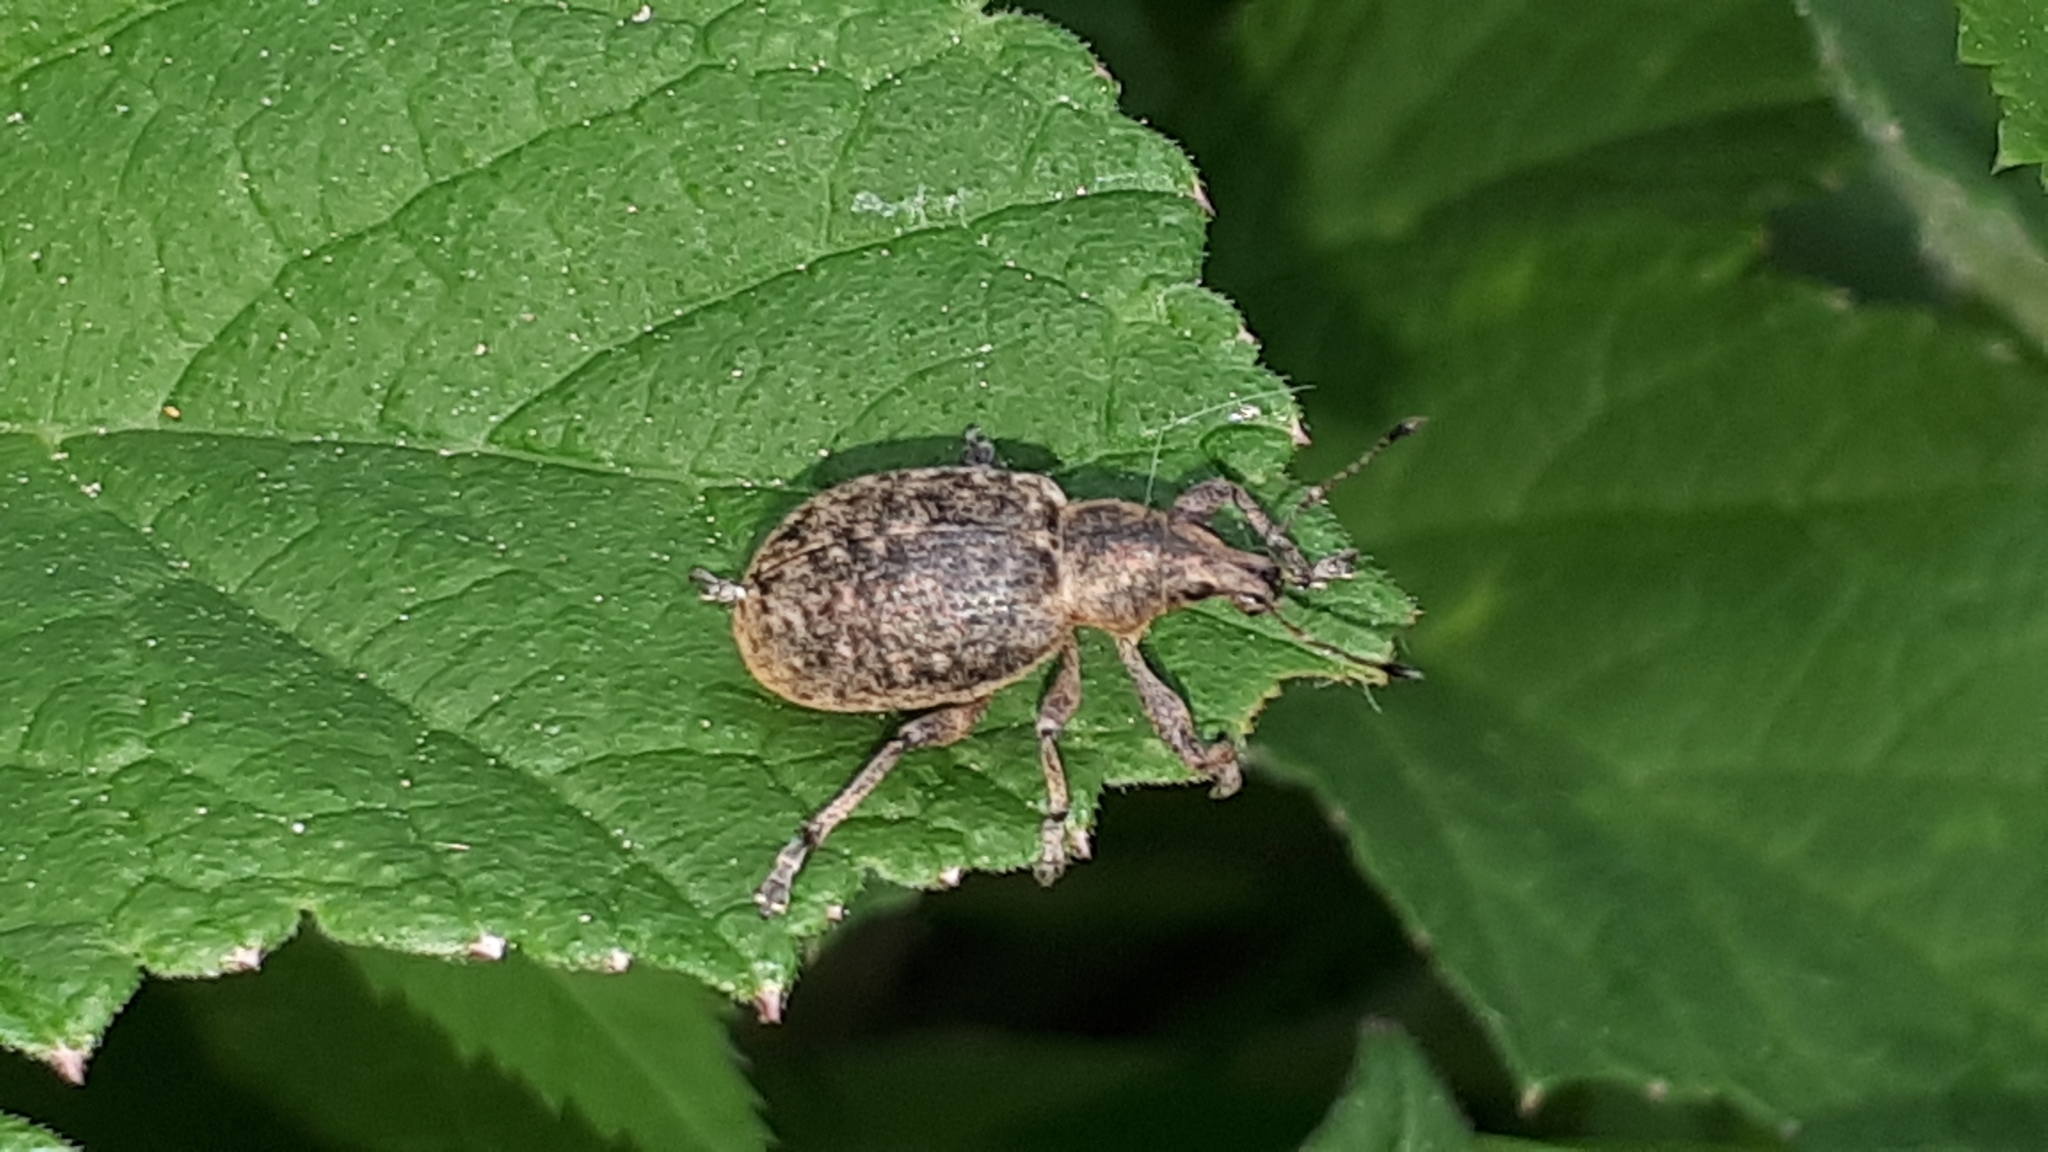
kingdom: Animalia
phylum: Arthropoda
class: Insecta
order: Coleoptera
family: Curculionidae
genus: Liophloeus
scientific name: Liophloeus tessulatus
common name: Weevil
